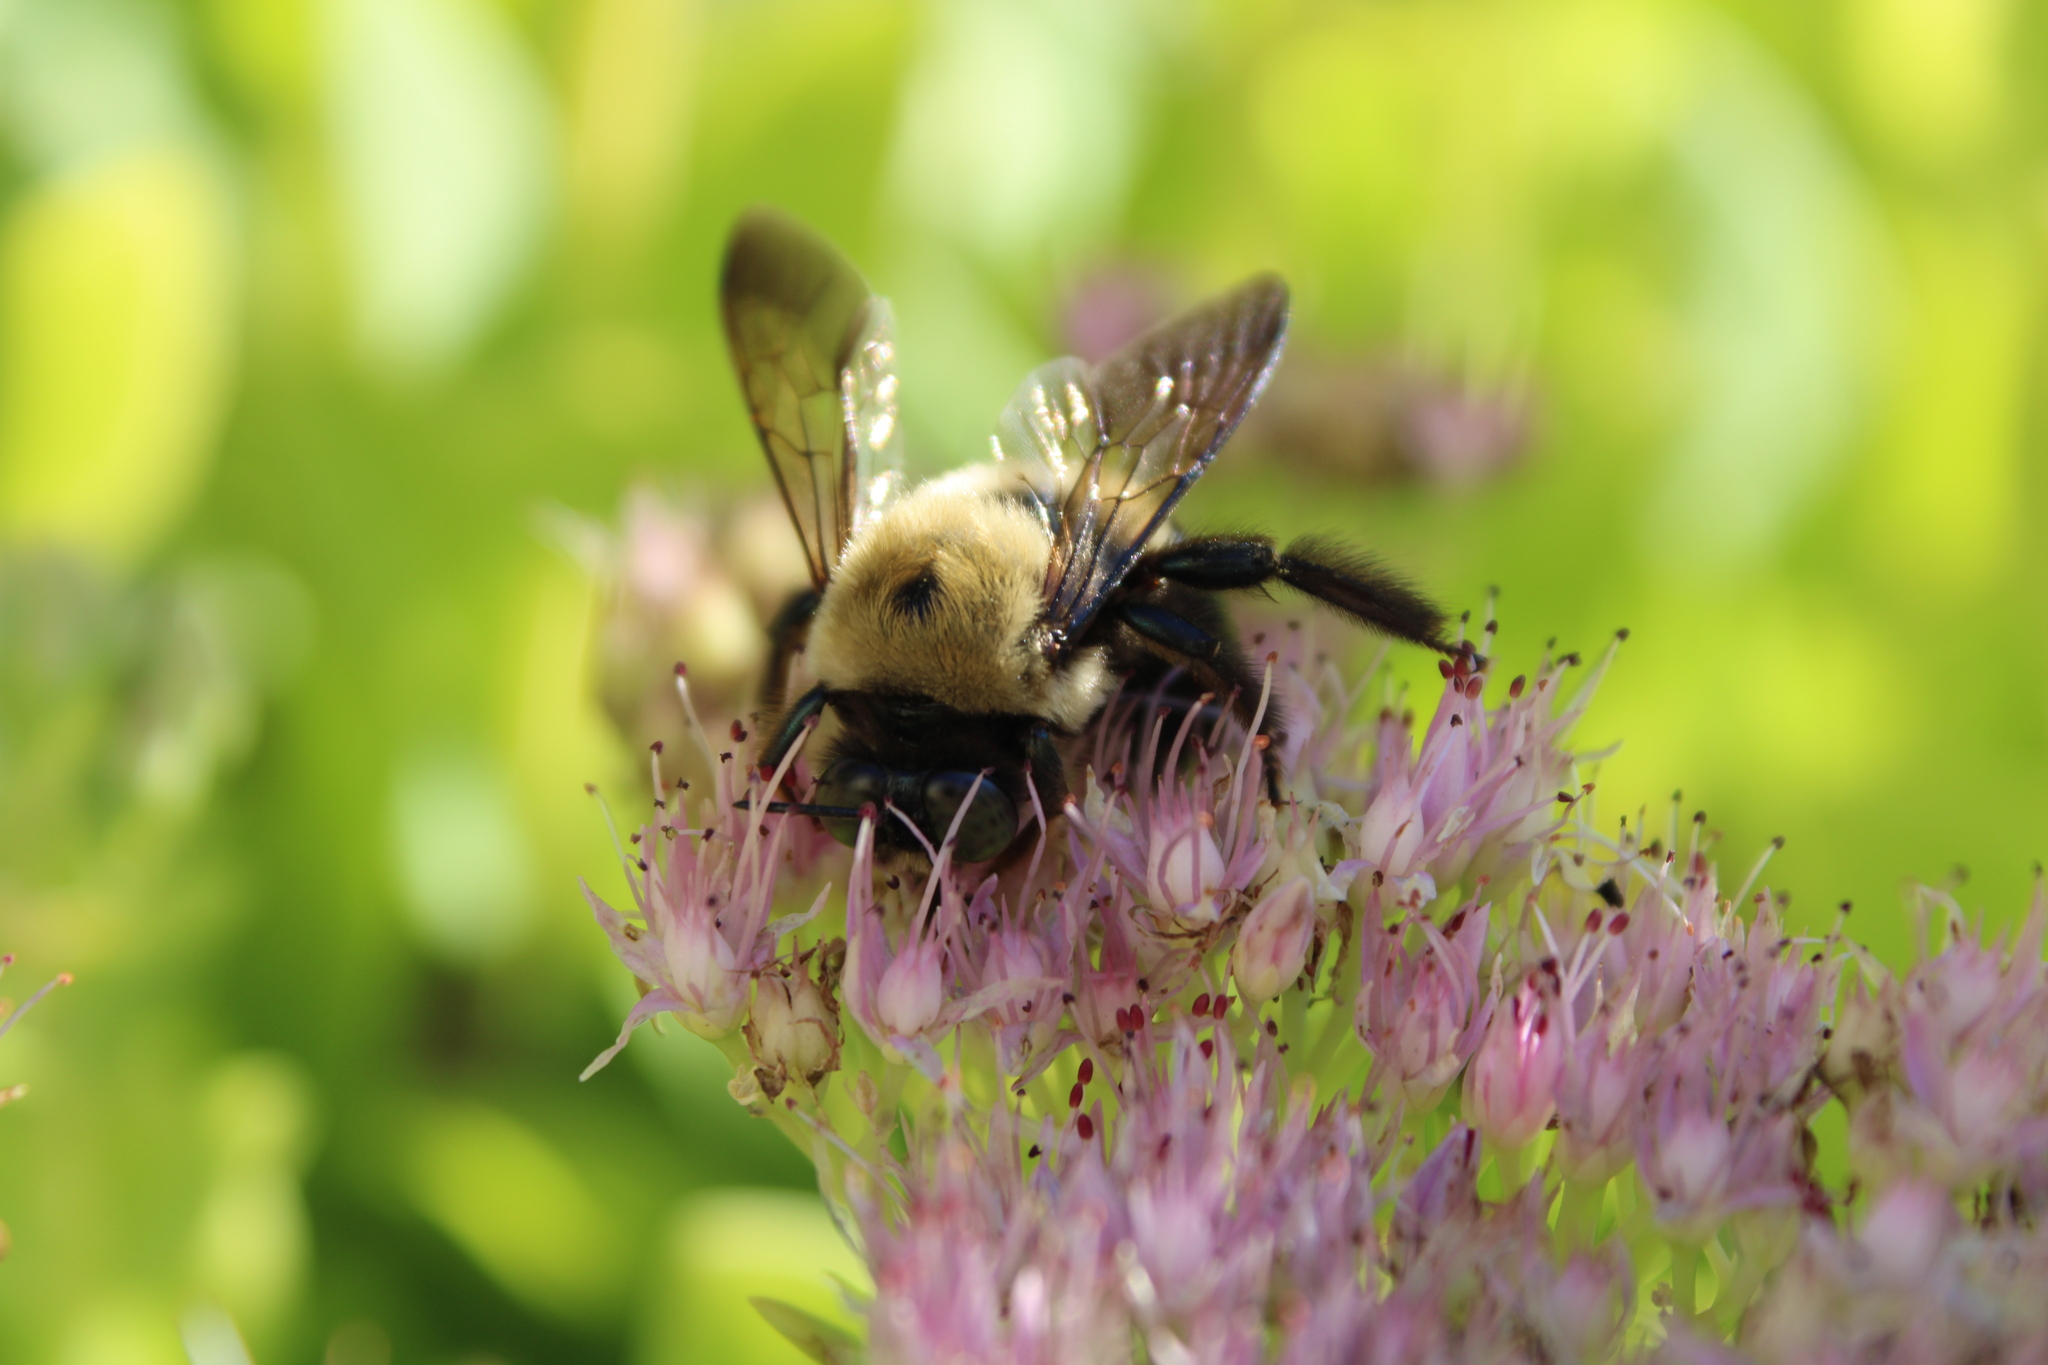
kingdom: Animalia
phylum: Arthropoda
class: Insecta
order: Hymenoptera
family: Apidae
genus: Xylocopa
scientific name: Xylocopa virginica
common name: Carpenter bee
